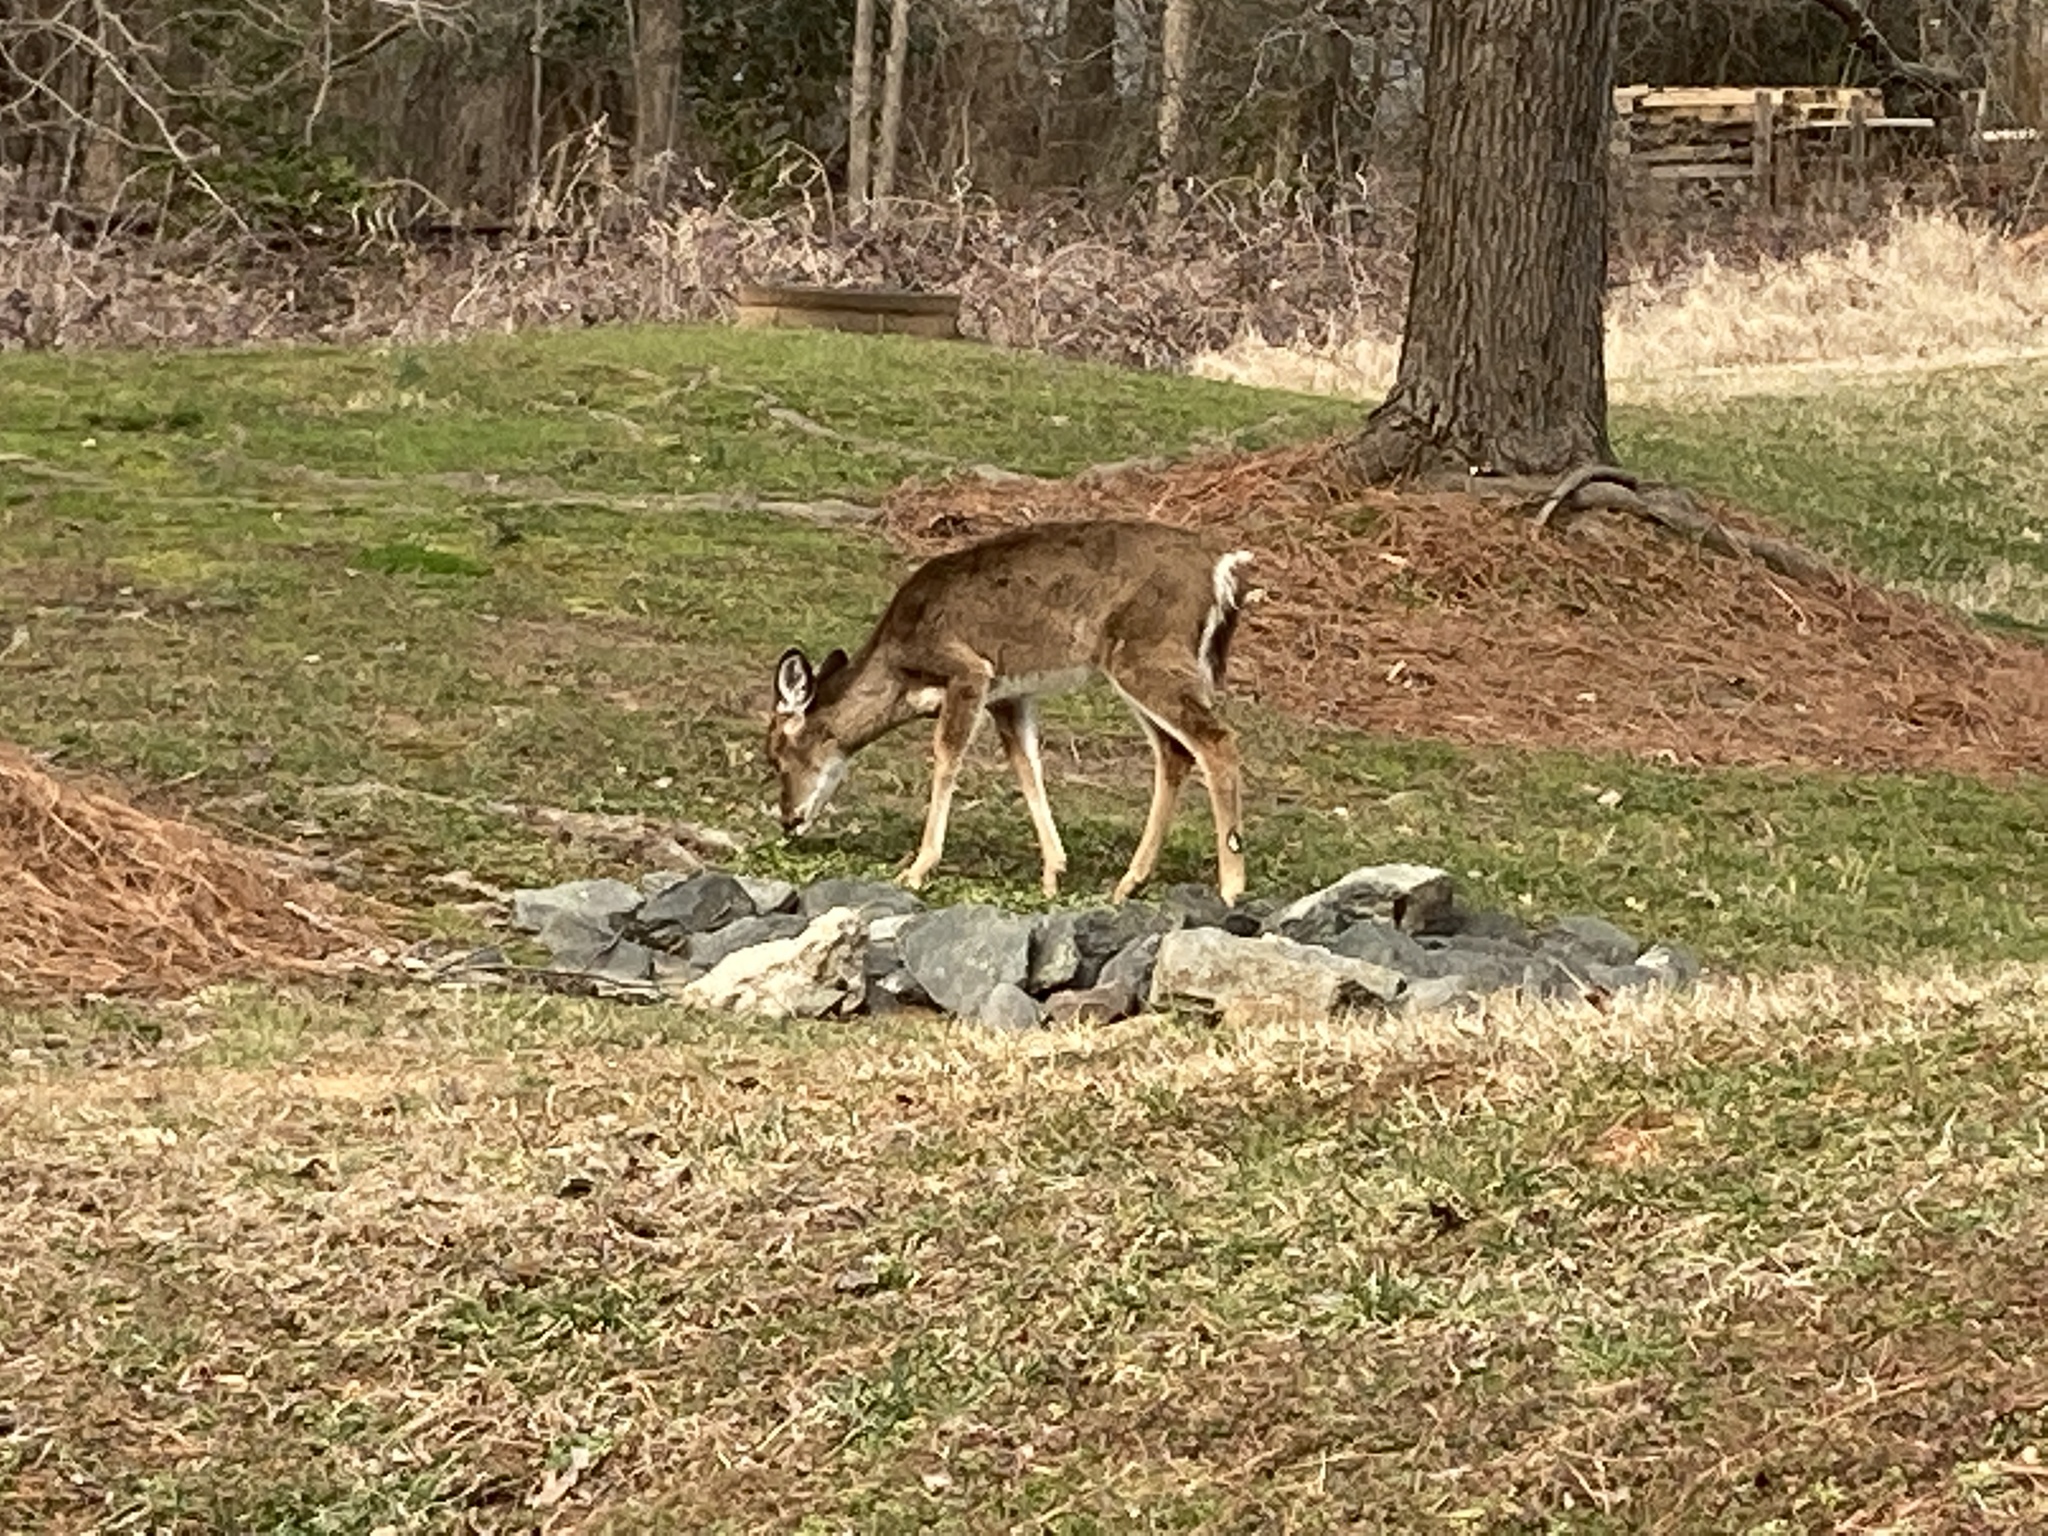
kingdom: Animalia
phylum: Chordata
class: Mammalia
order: Artiodactyla
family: Cervidae
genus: Odocoileus
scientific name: Odocoileus virginianus
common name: White-tailed deer
